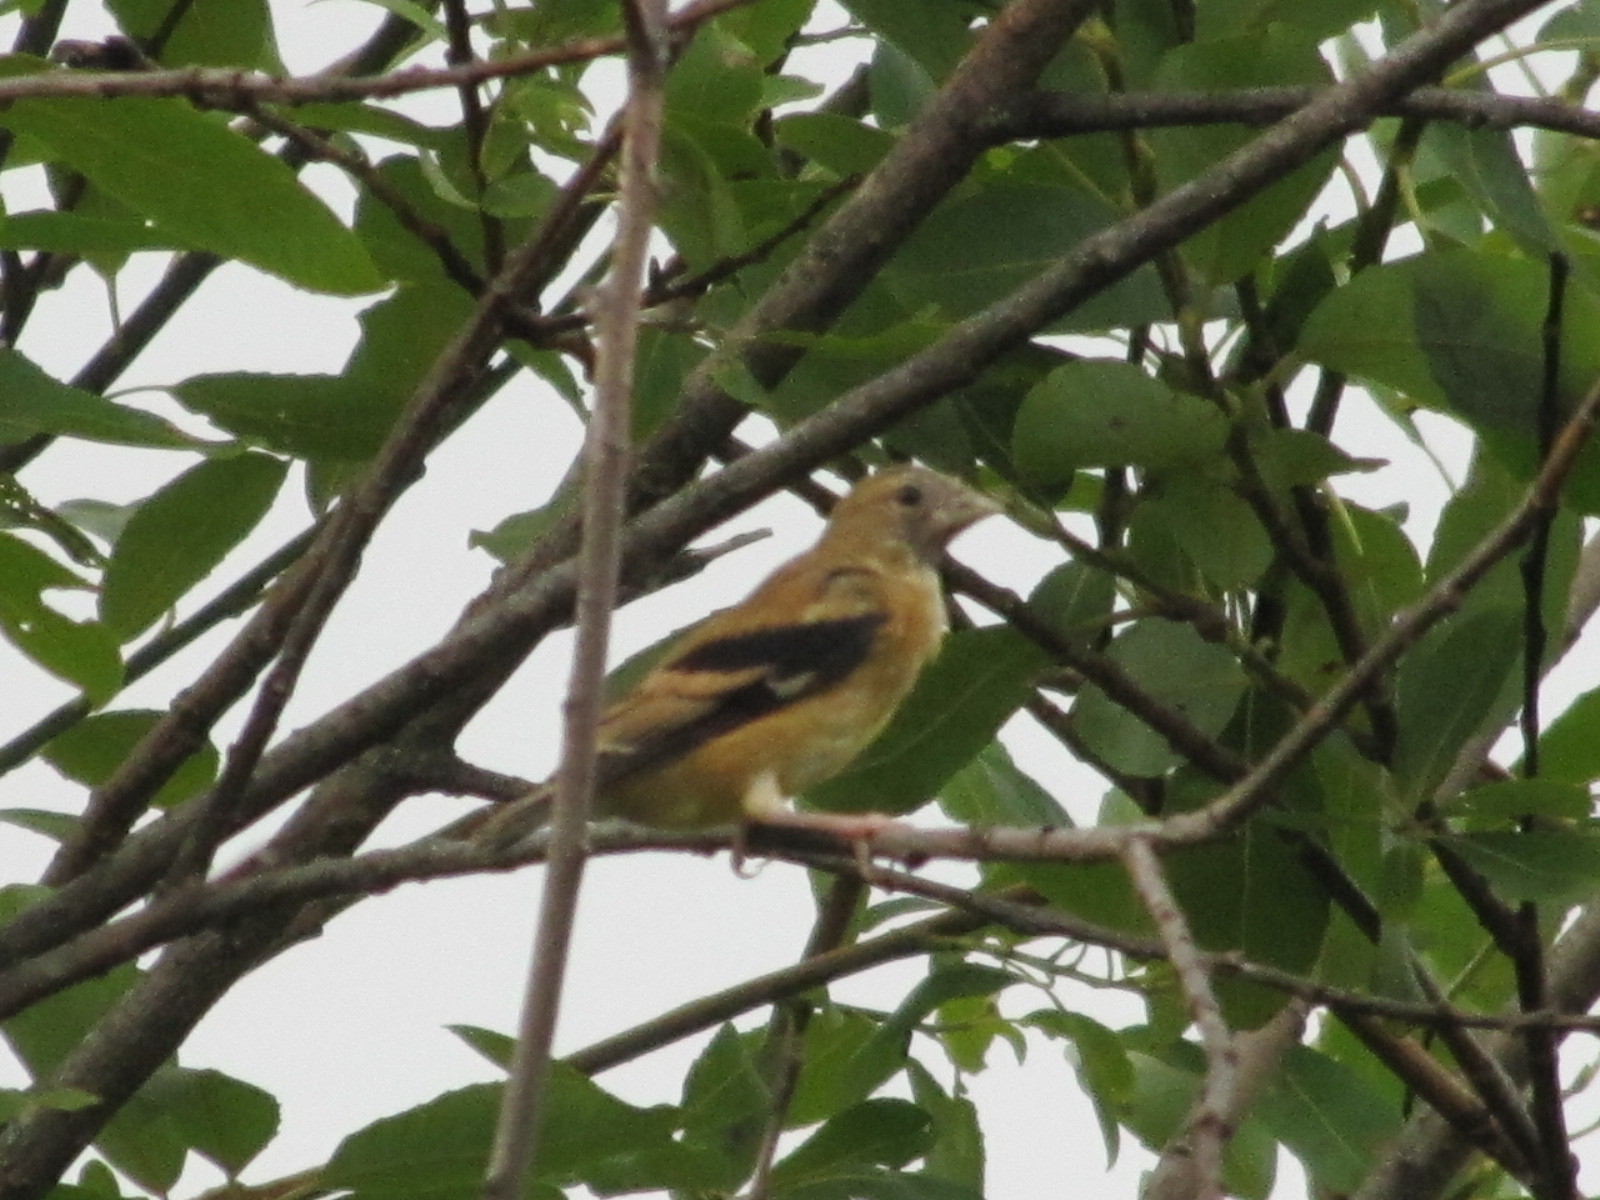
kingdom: Animalia
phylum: Chordata
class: Aves
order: Passeriformes
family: Fringillidae
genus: Spinus
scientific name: Spinus tristis
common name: American goldfinch
